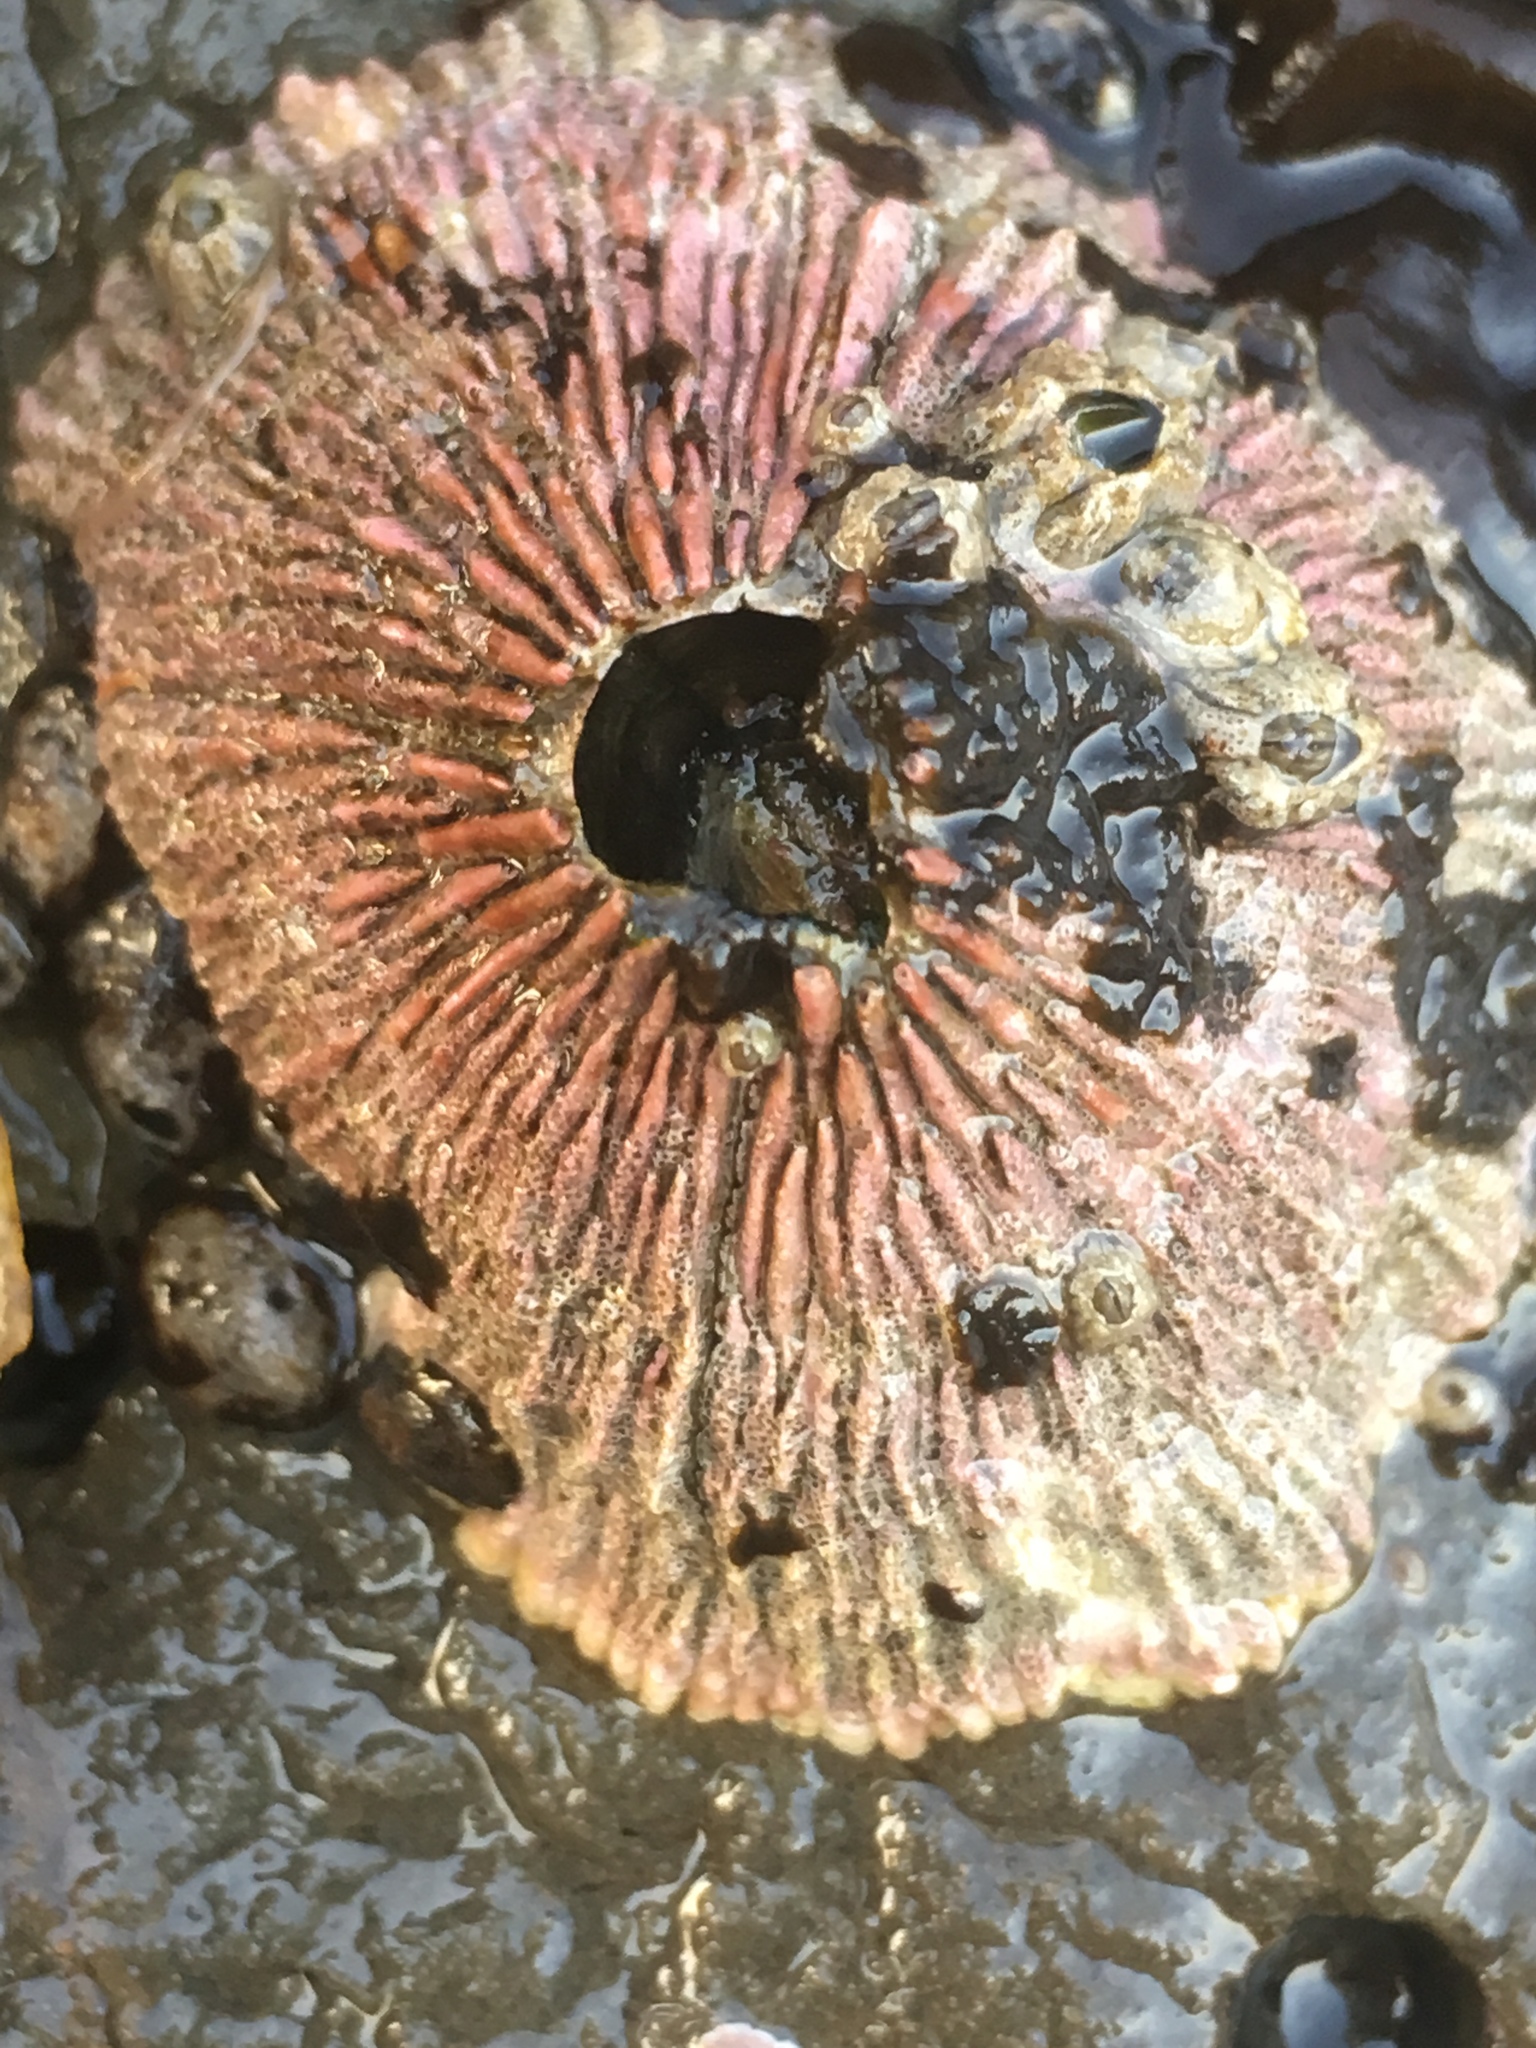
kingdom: Animalia
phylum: Arthropoda
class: Maxillopoda
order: Sessilia
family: Tetraclitidae
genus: Tetraclita
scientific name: Tetraclita rubescens
